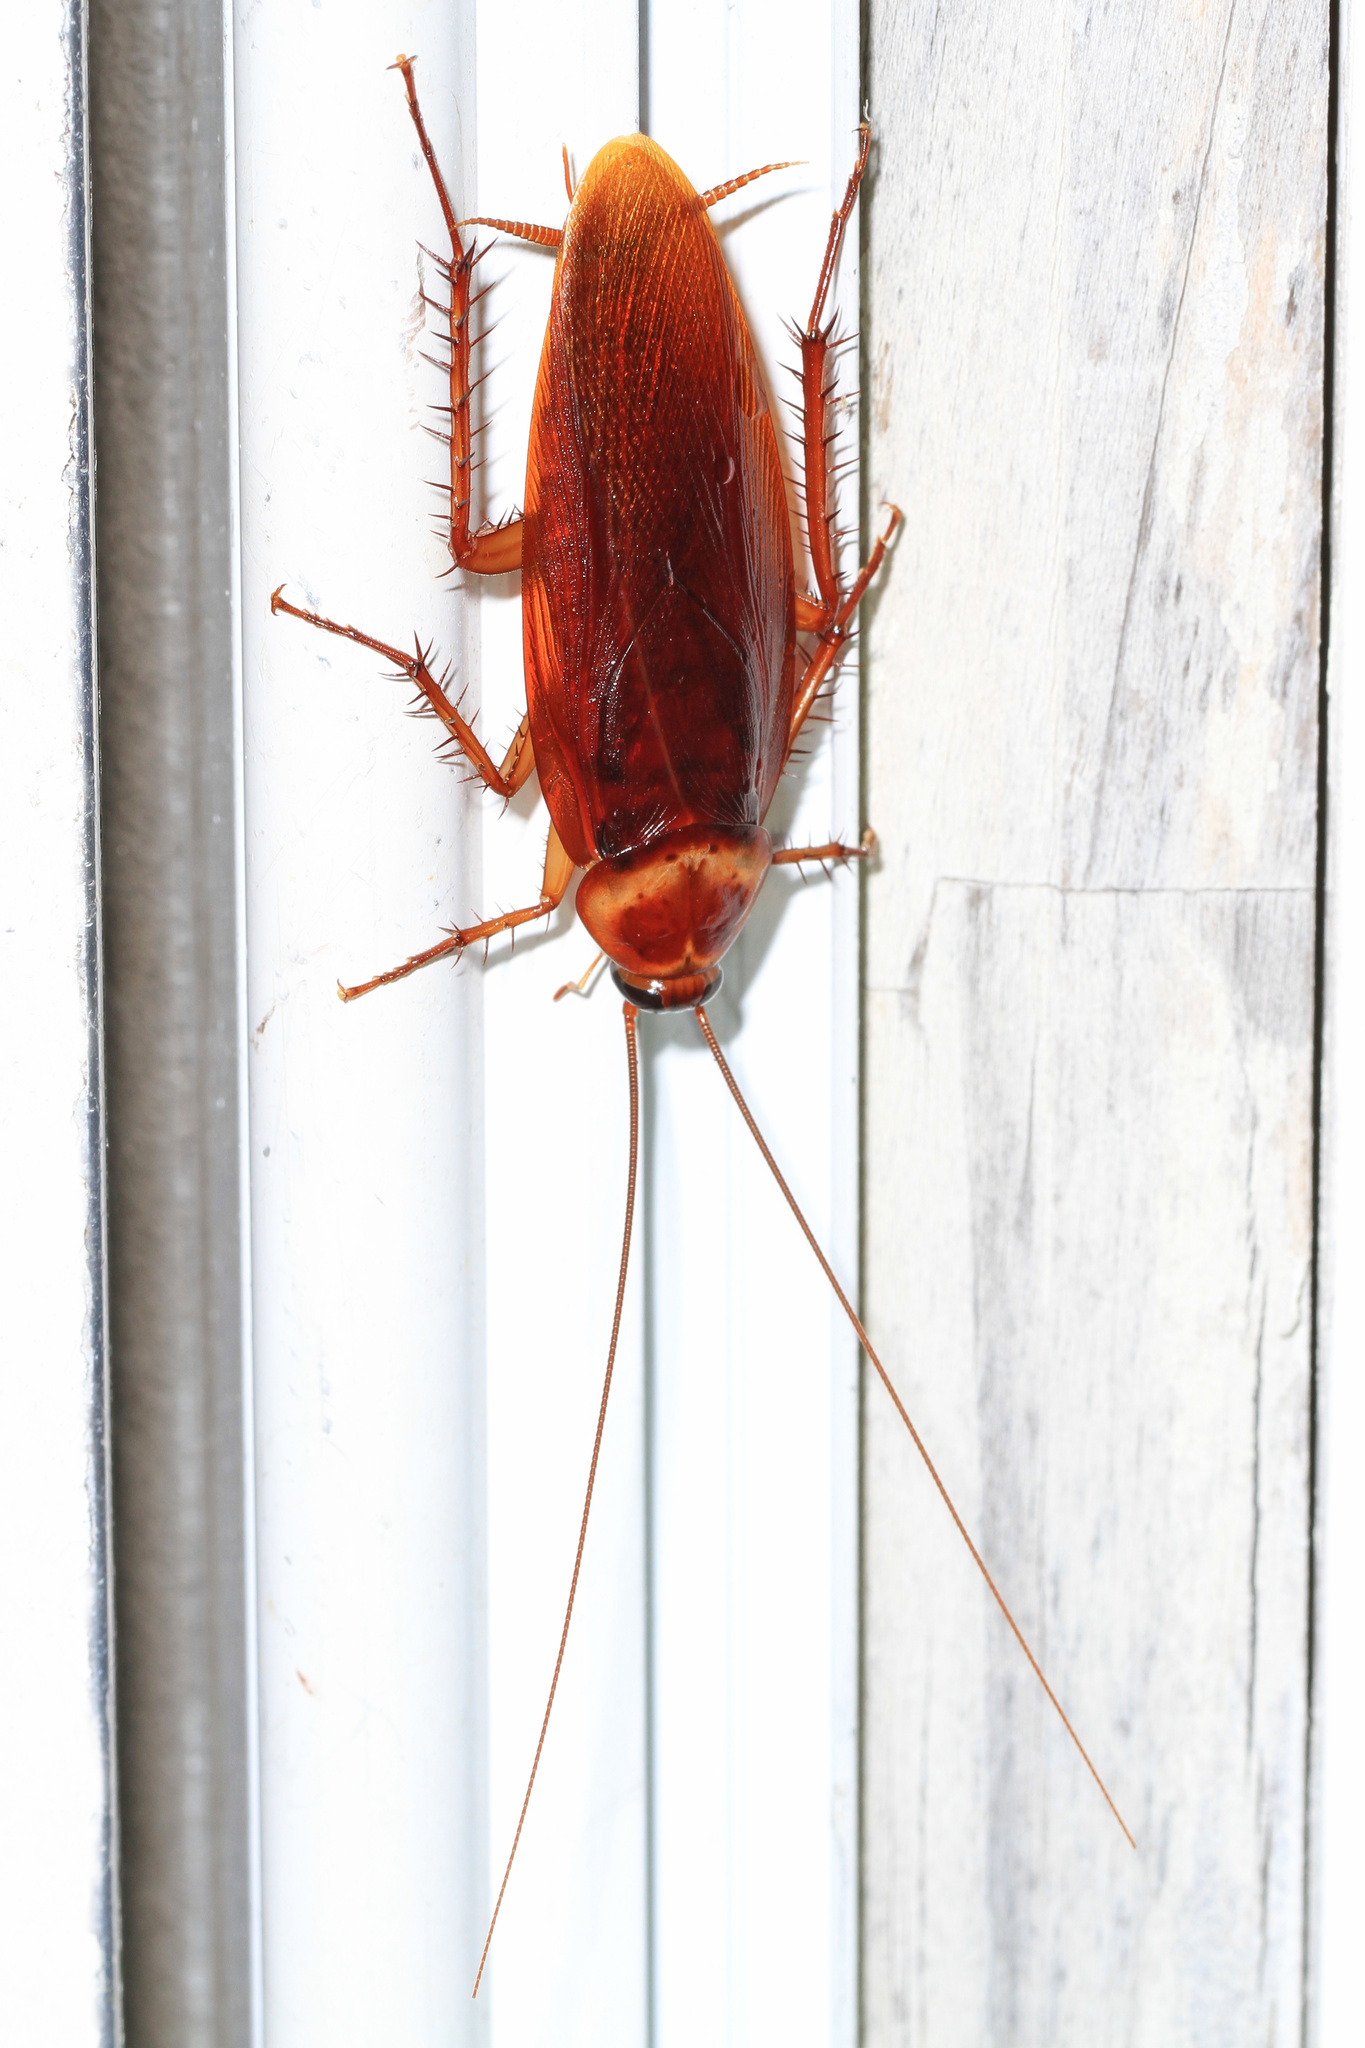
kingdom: Animalia
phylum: Arthropoda
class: Insecta
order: Blattodea
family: Blattidae
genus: Periplaneta
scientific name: Periplaneta americana
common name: American cockroach
